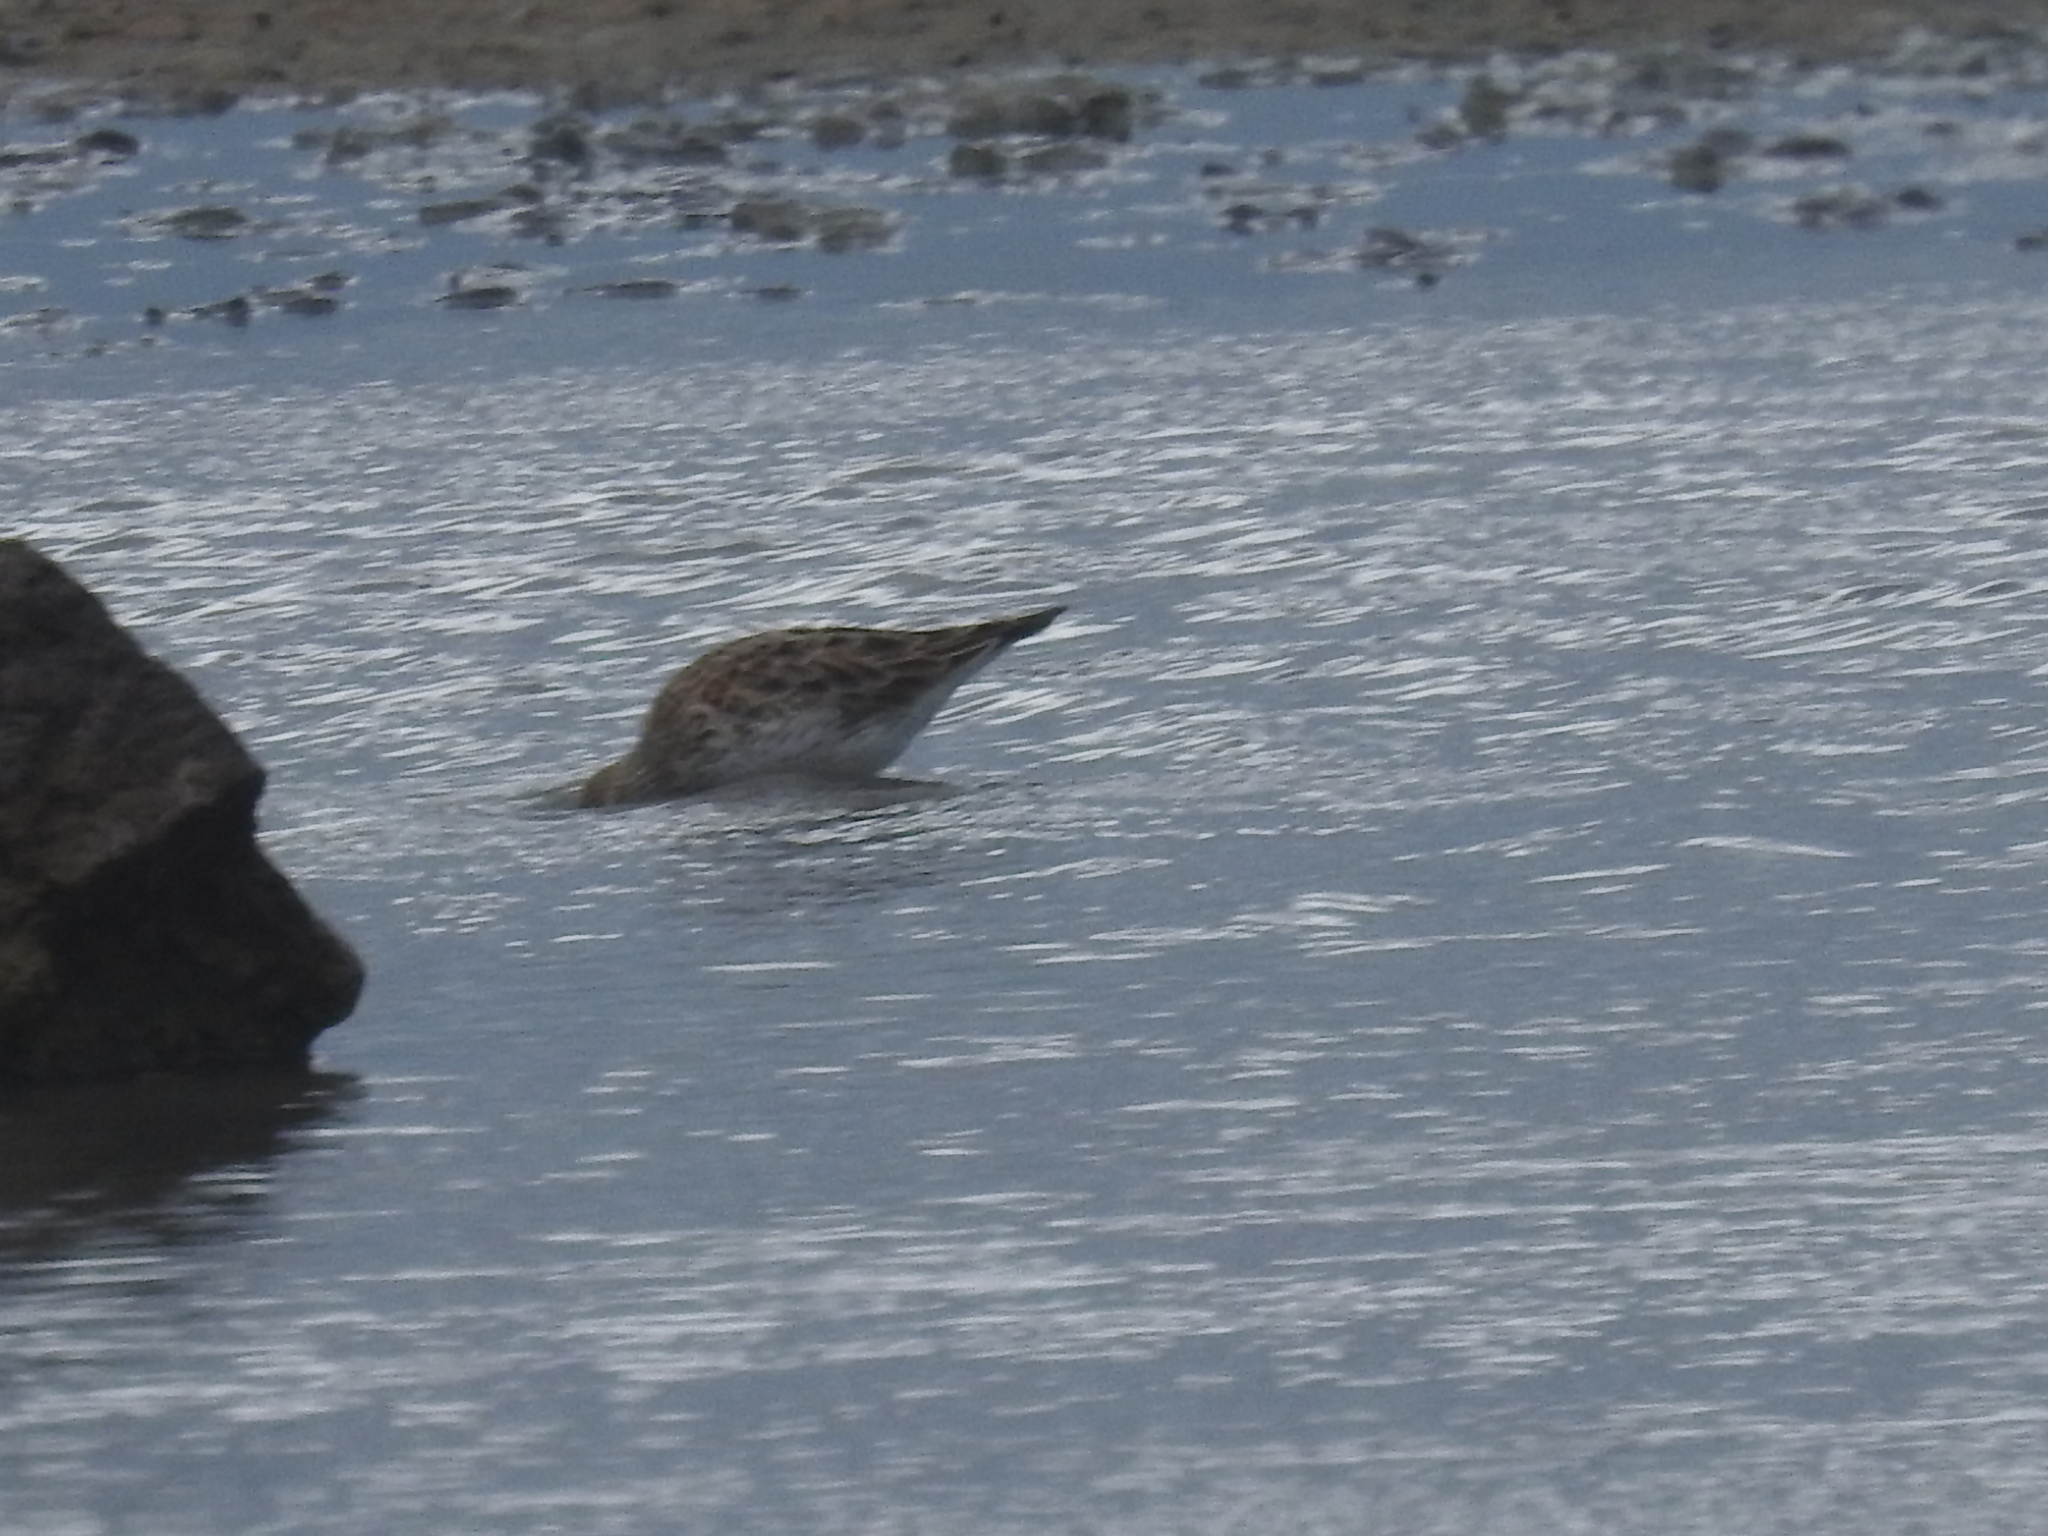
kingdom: Animalia
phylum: Chordata
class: Aves
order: Charadriiformes
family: Scolopacidae
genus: Calidris
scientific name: Calidris fuscicollis
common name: White-rumped sandpiper
